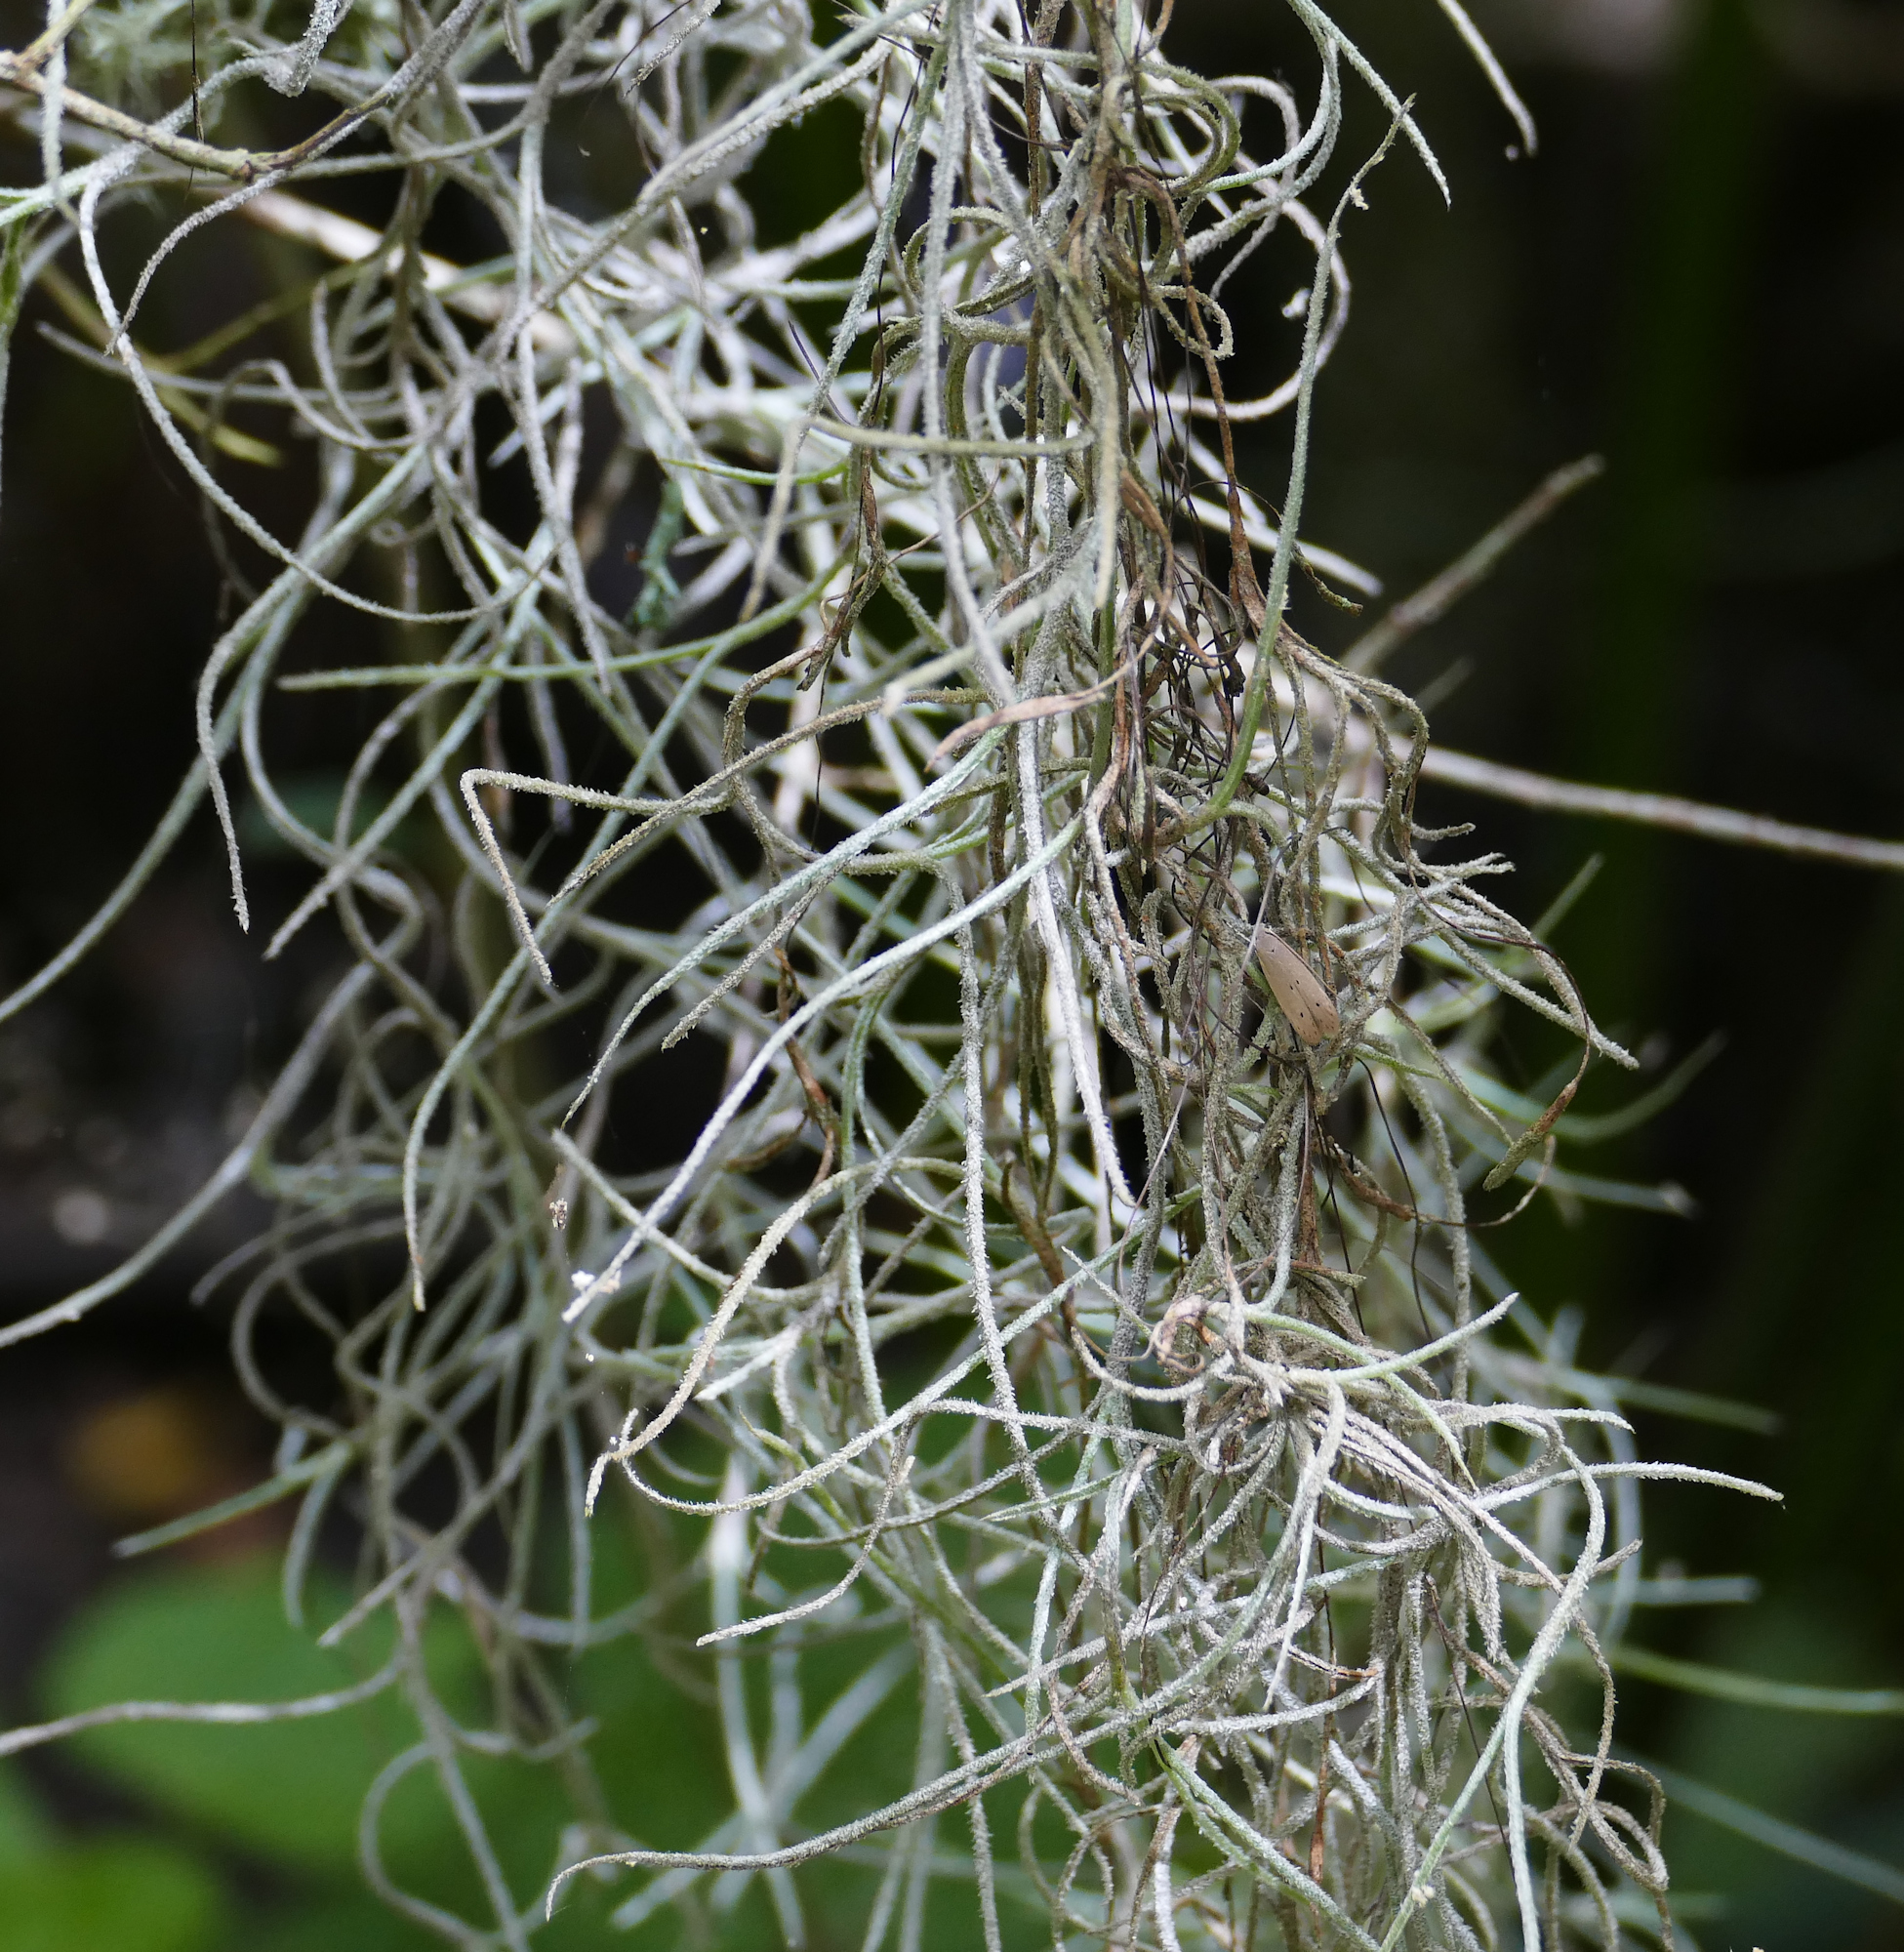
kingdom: Plantae
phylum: Tracheophyta
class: Liliopsida
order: Poales
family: Bromeliaceae
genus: Tillandsia
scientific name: Tillandsia usneoides
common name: Spanish moss
